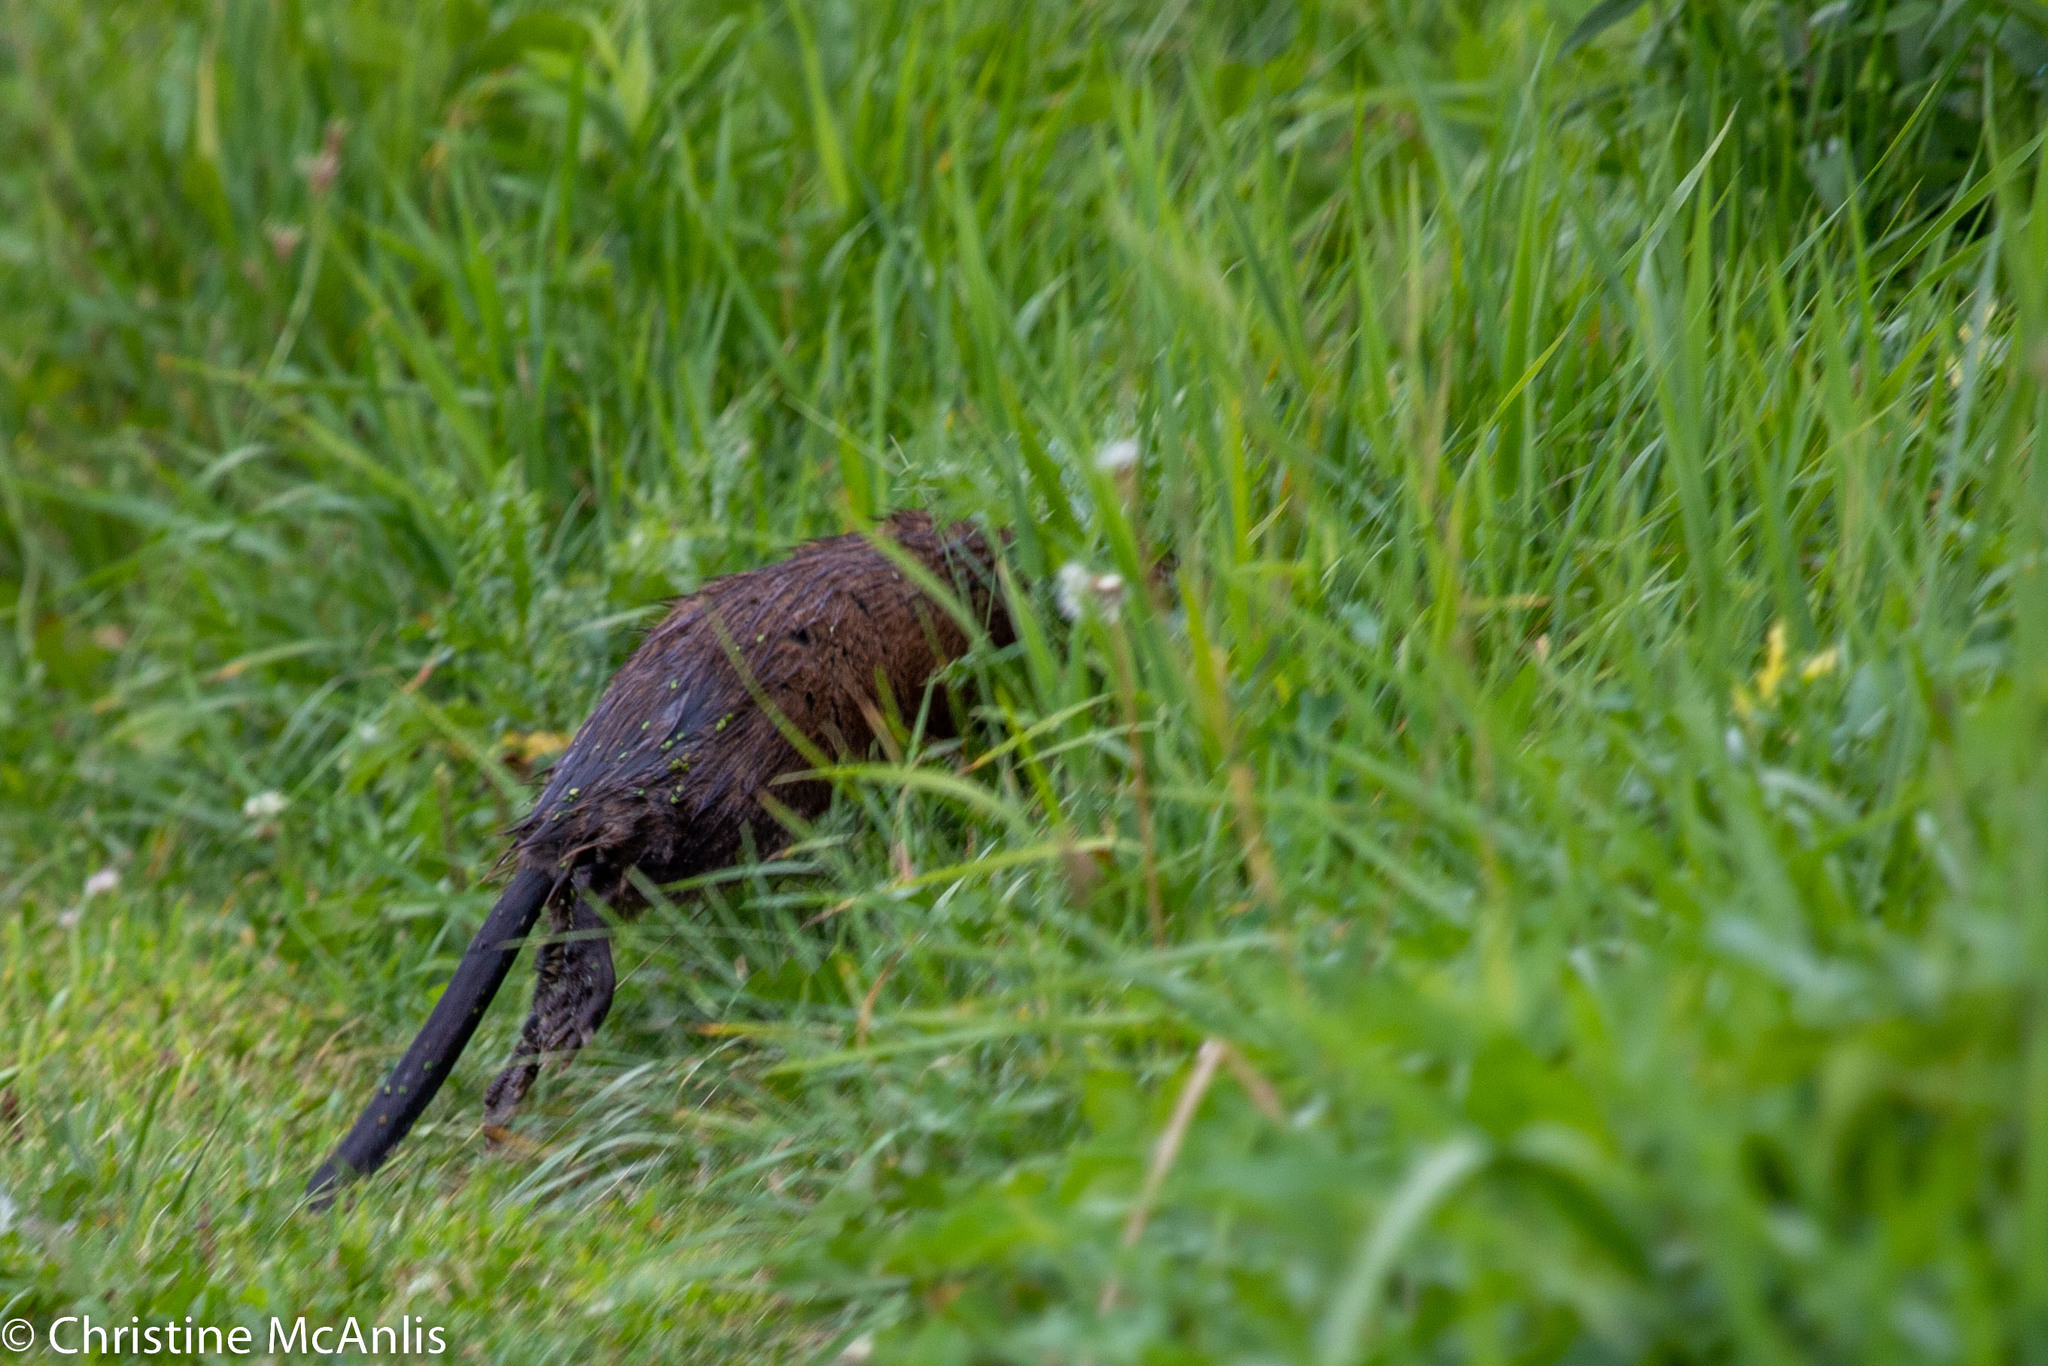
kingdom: Animalia
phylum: Chordata
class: Mammalia
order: Rodentia
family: Cricetidae
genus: Ondatra
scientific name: Ondatra zibethicus
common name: Muskrat
